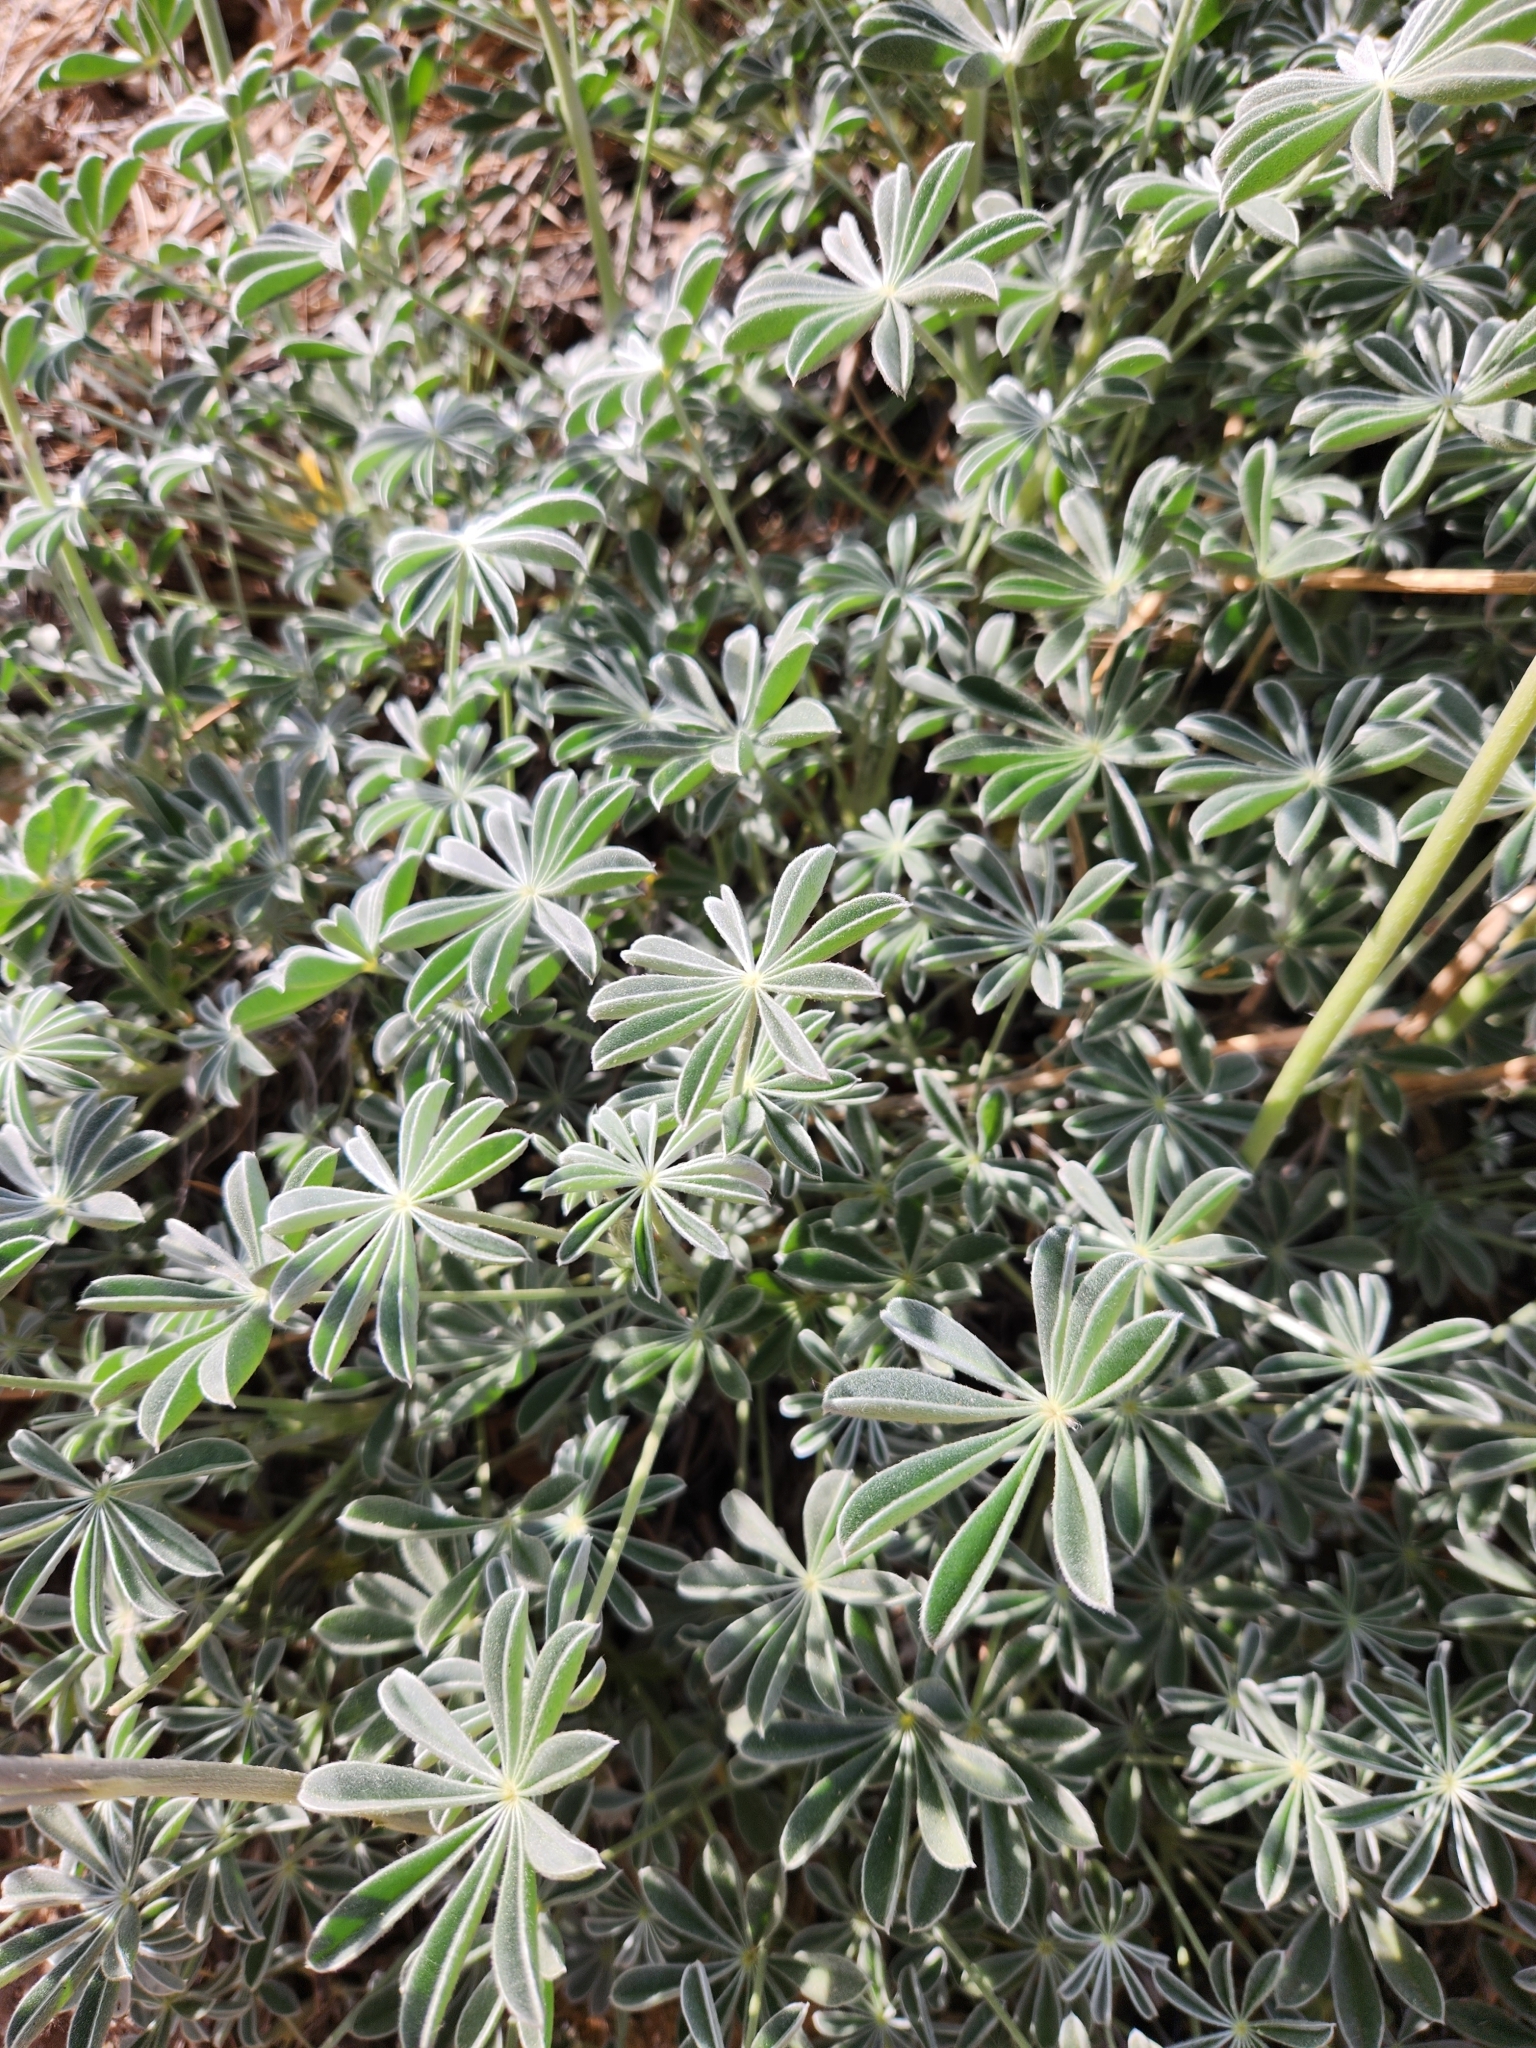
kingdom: Plantae
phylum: Tracheophyta
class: Magnoliopsida
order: Fabales
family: Fabaceae
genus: Lupinus
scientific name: Lupinus excubitus
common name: Grape soda lupine
